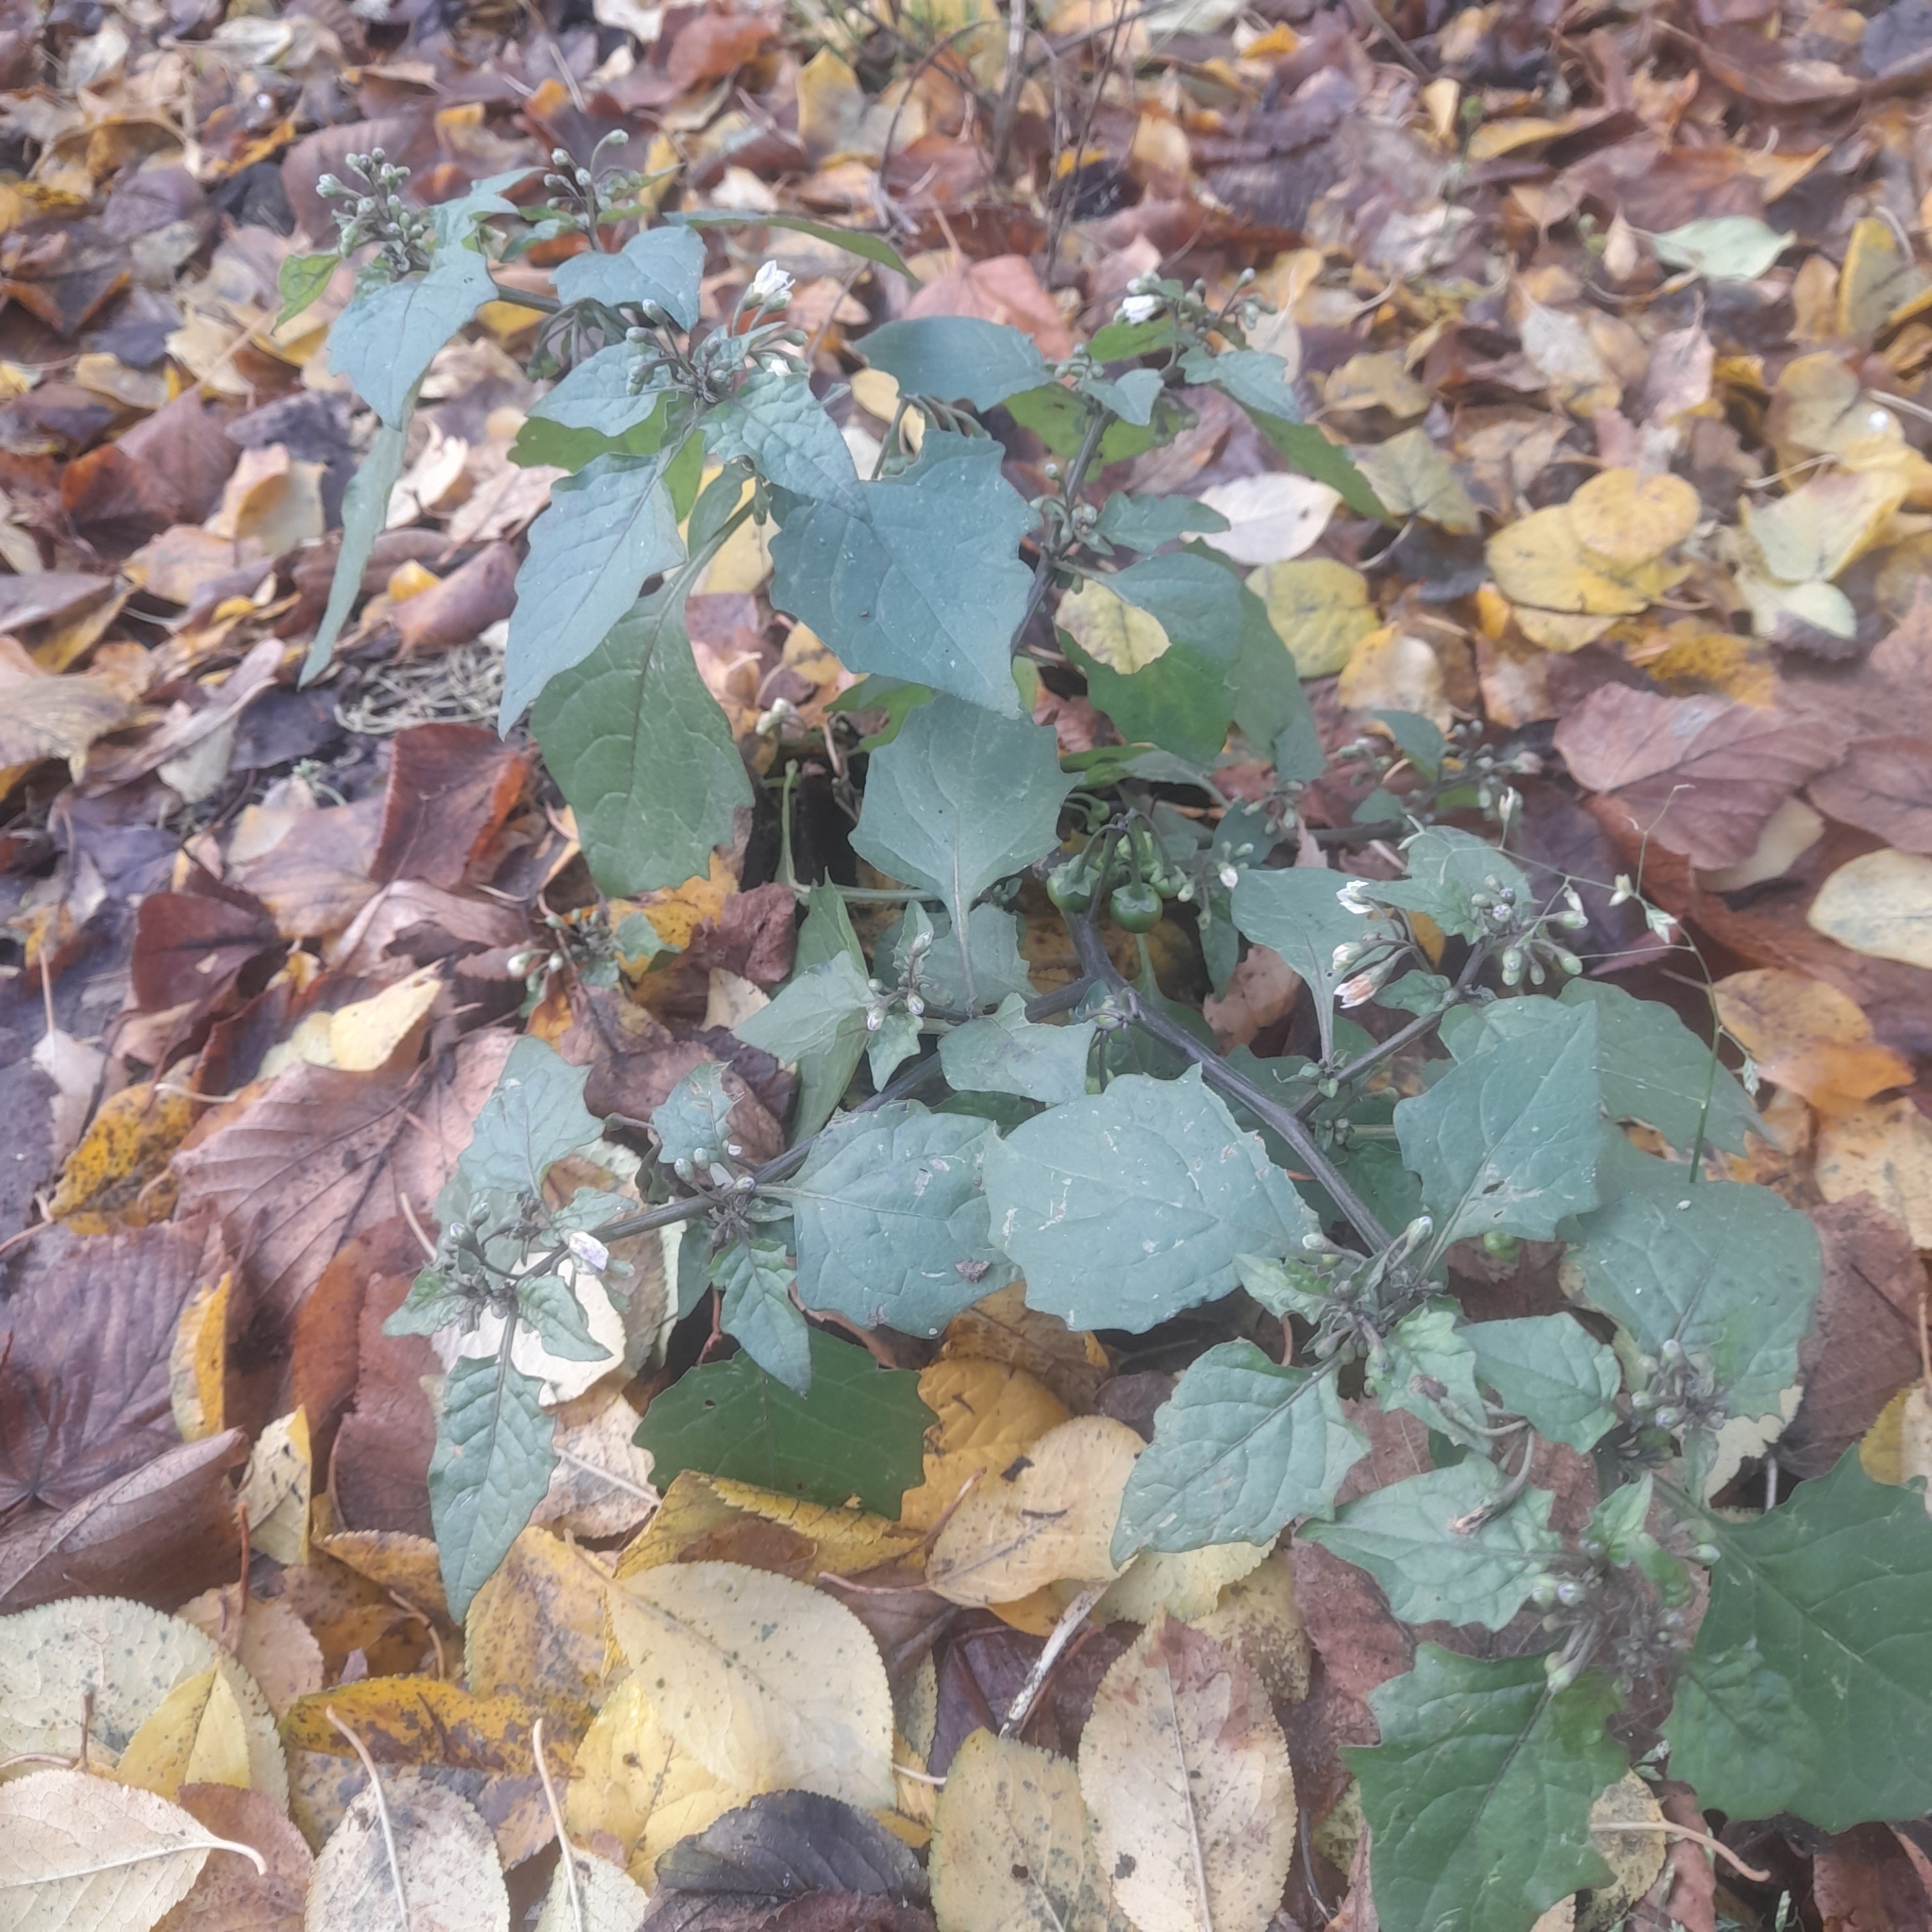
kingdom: Plantae
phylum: Tracheophyta
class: Magnoliopsida
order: Solanales
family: Solanaceae
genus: Solanum
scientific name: Solanum nigrum
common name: Black nightshade
